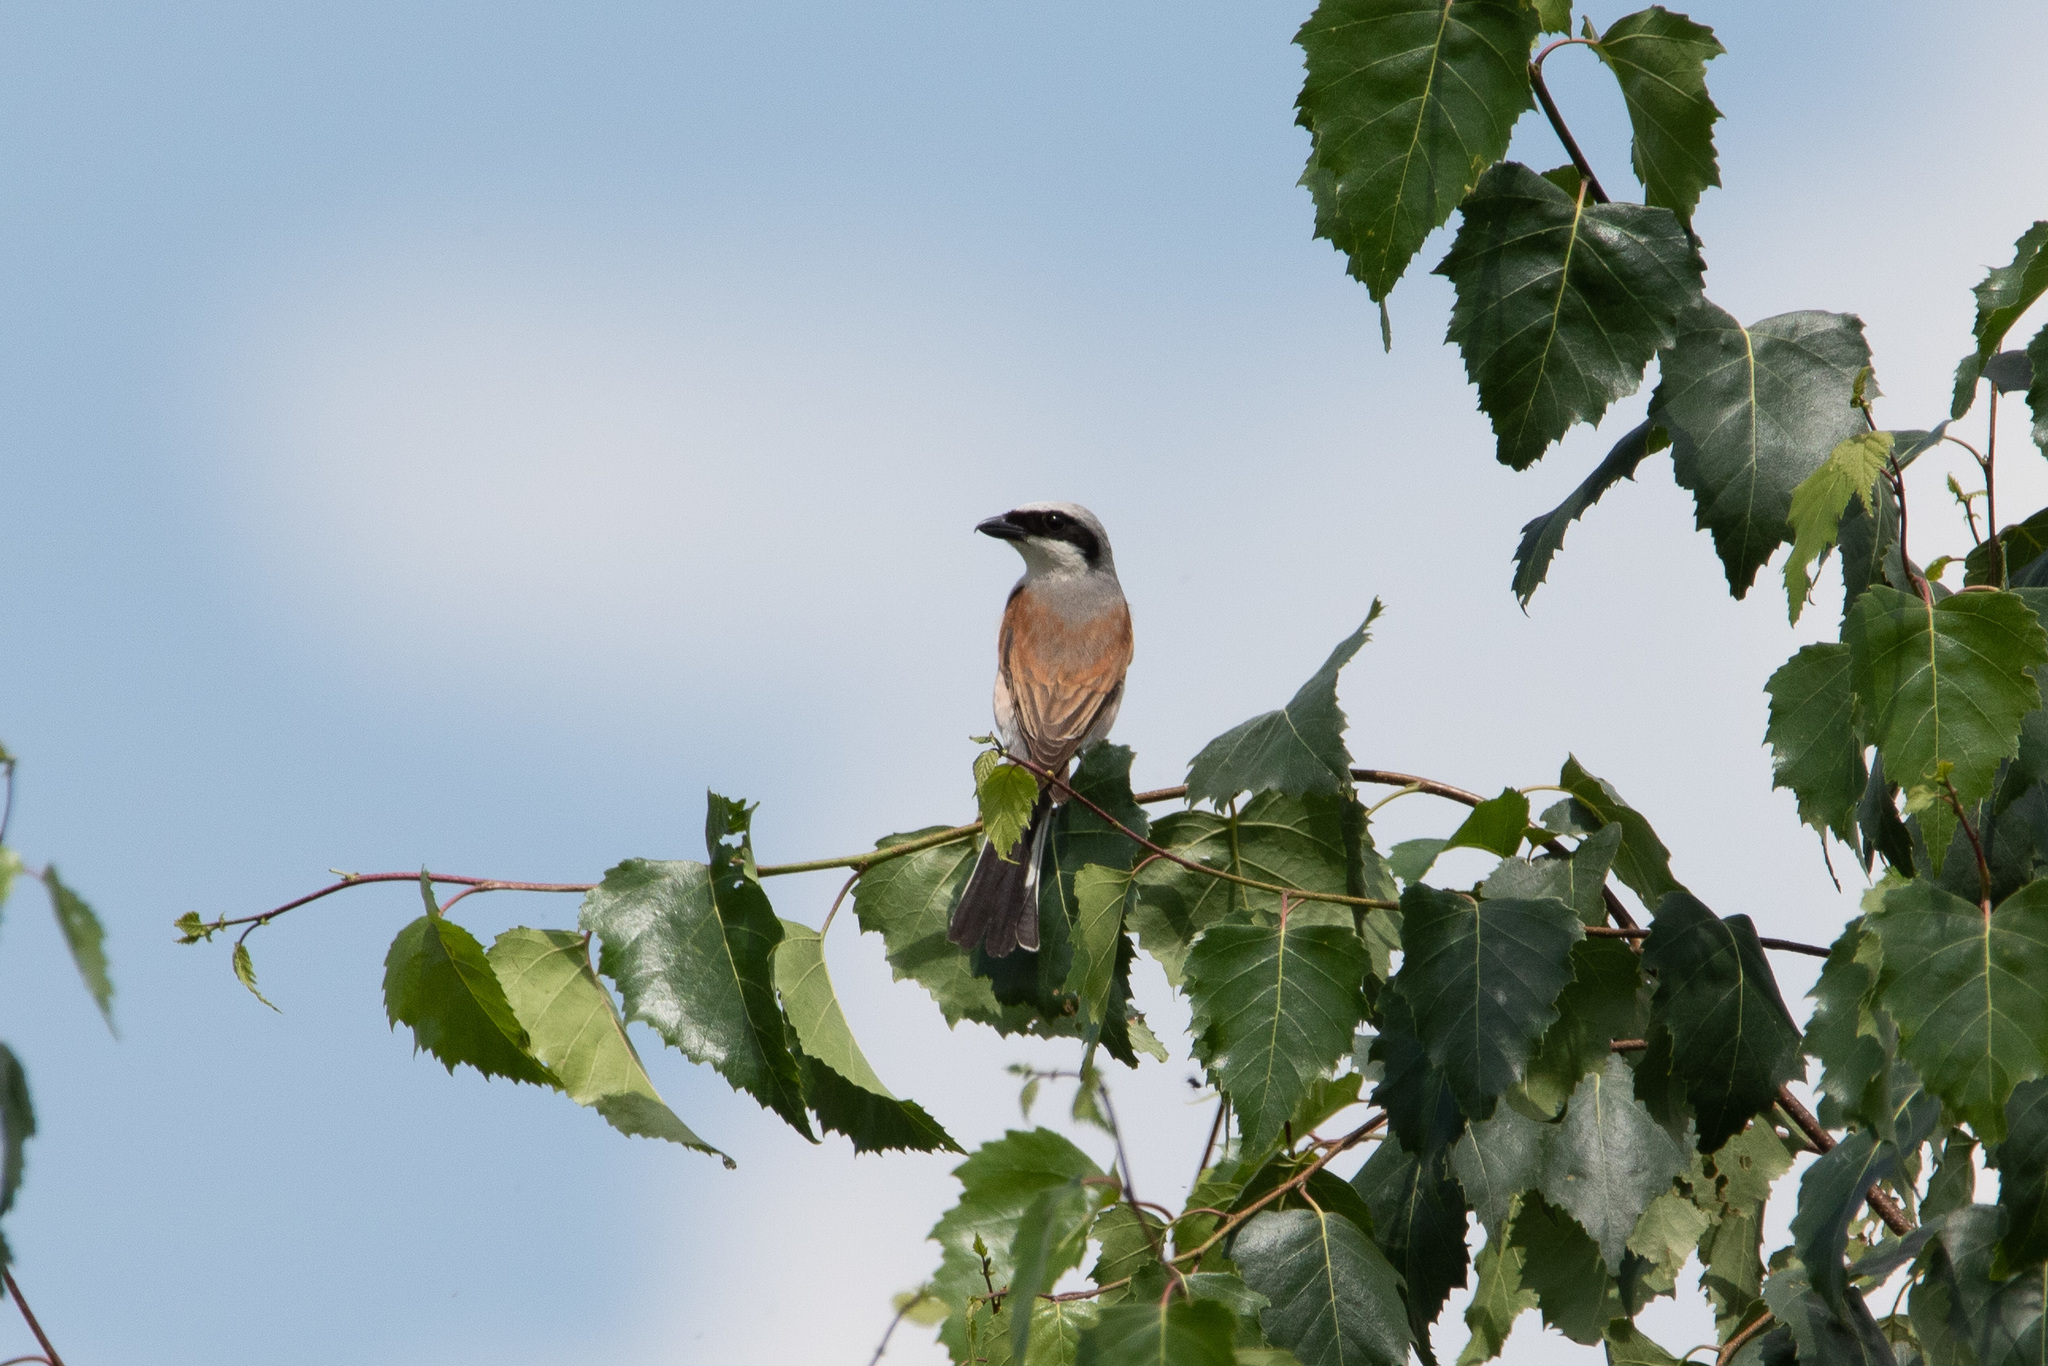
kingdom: Animalia
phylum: Chordata
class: Aves
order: Passeriformes
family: Laniidae
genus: Lanius
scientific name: Lanius collurio
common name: Red-backed shrike
